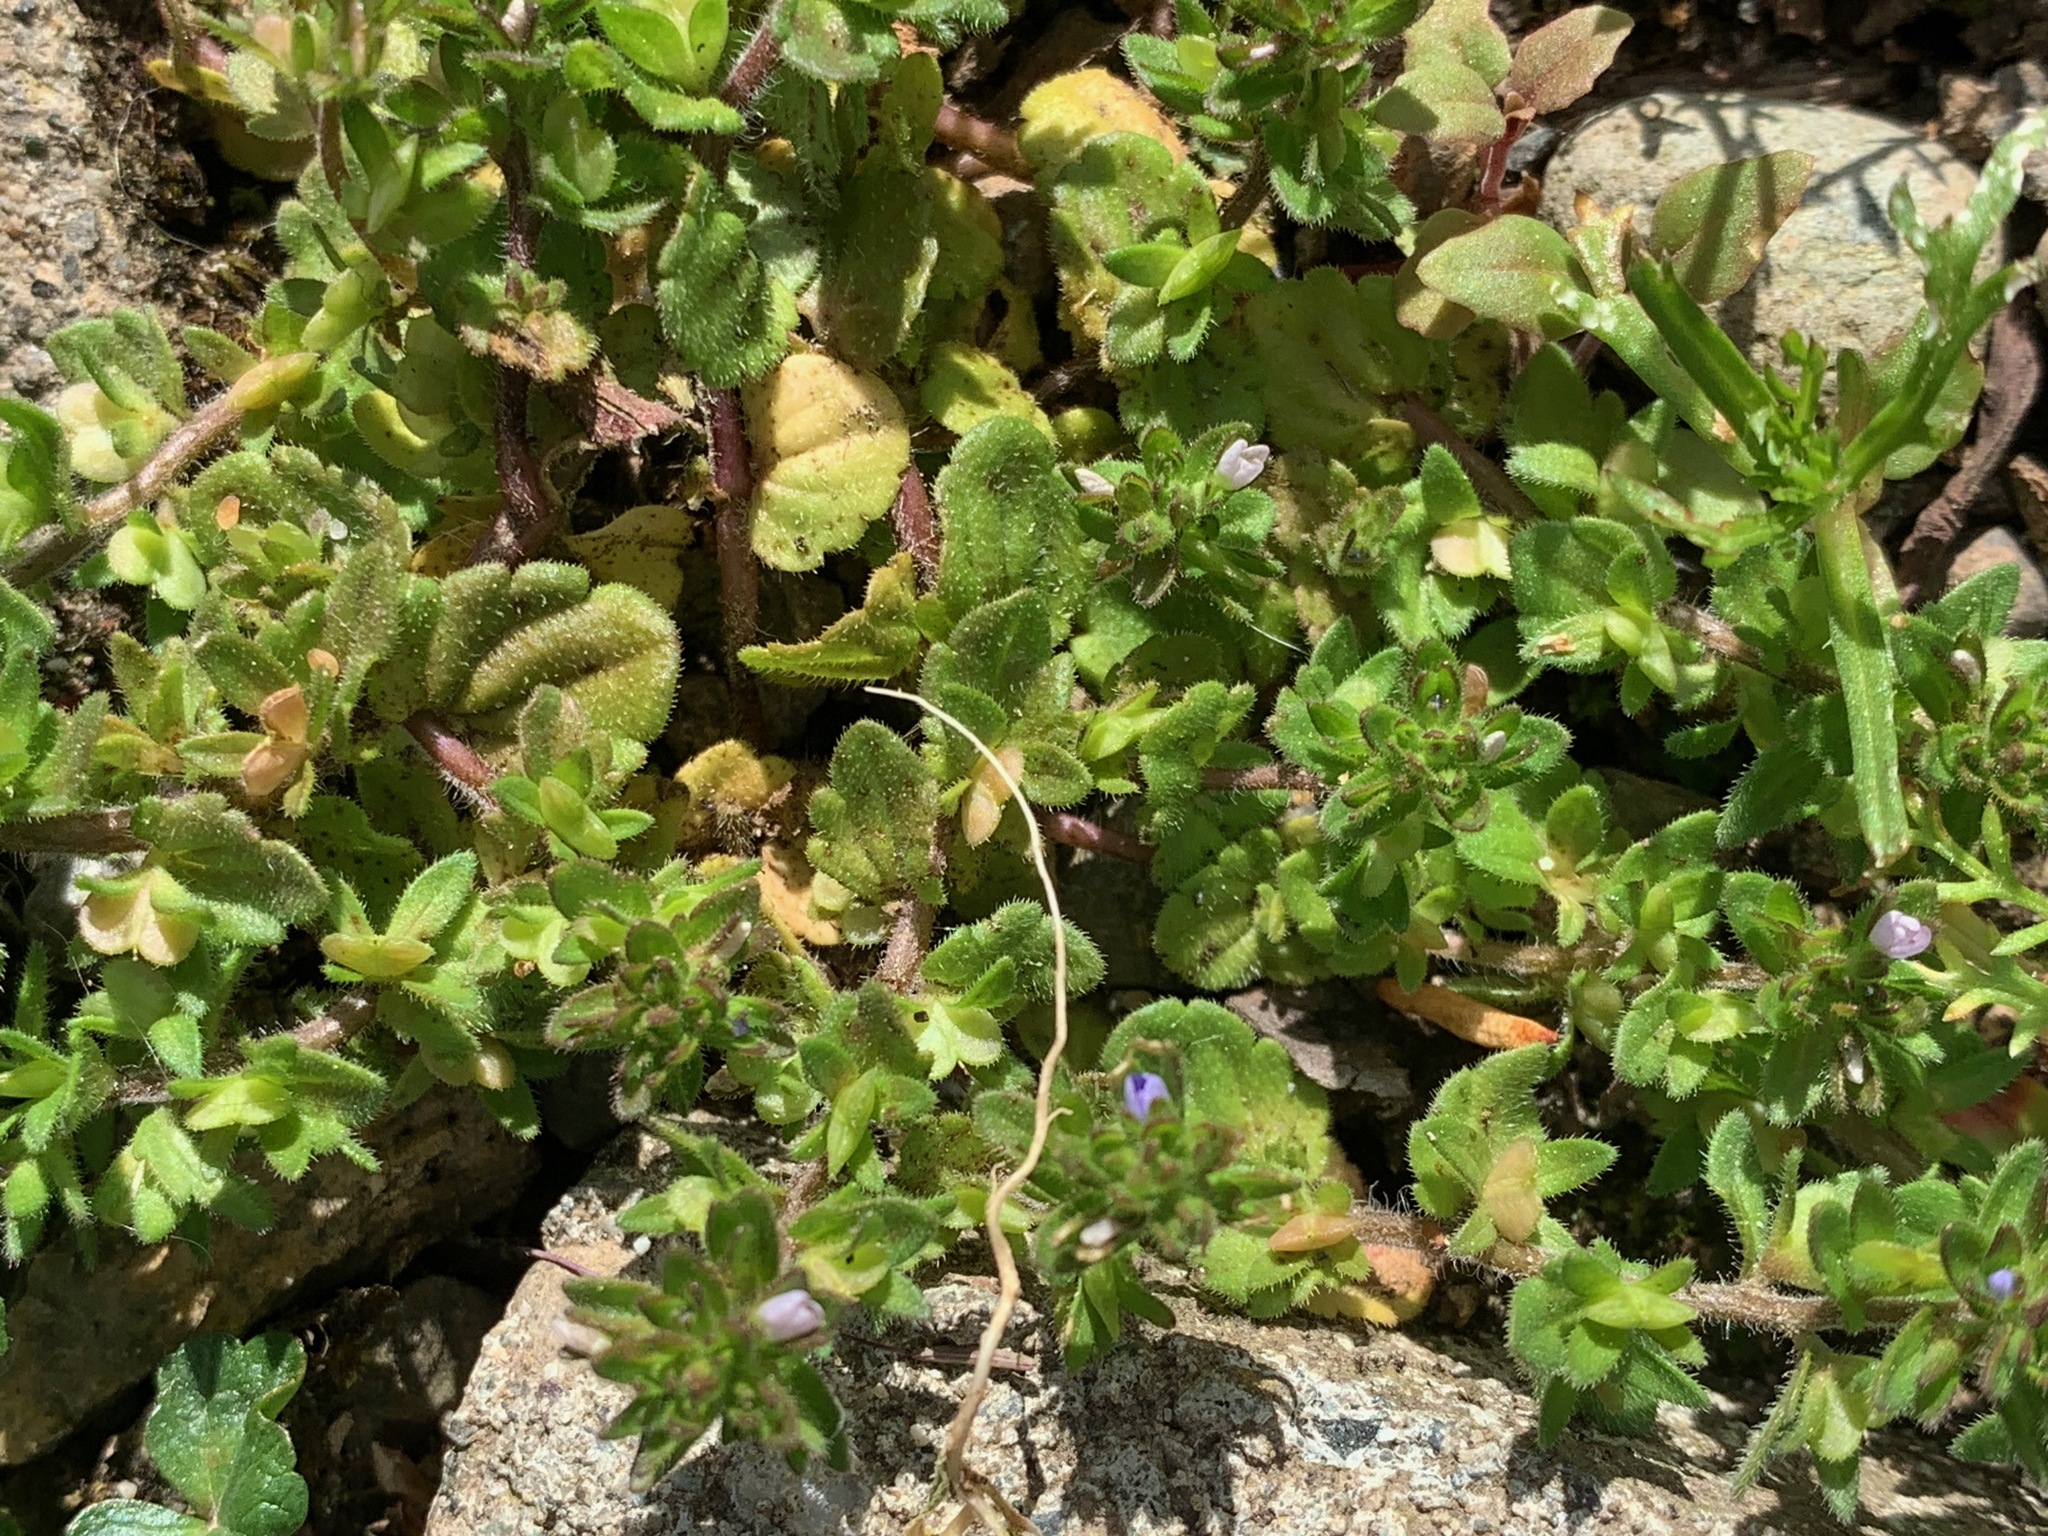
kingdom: Plantae
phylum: Tracheophyta
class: Magnoliopsida
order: Lamiales
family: Plantaginaceae
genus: Veronica
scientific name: Veronica arvensis
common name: Corn speedwell
